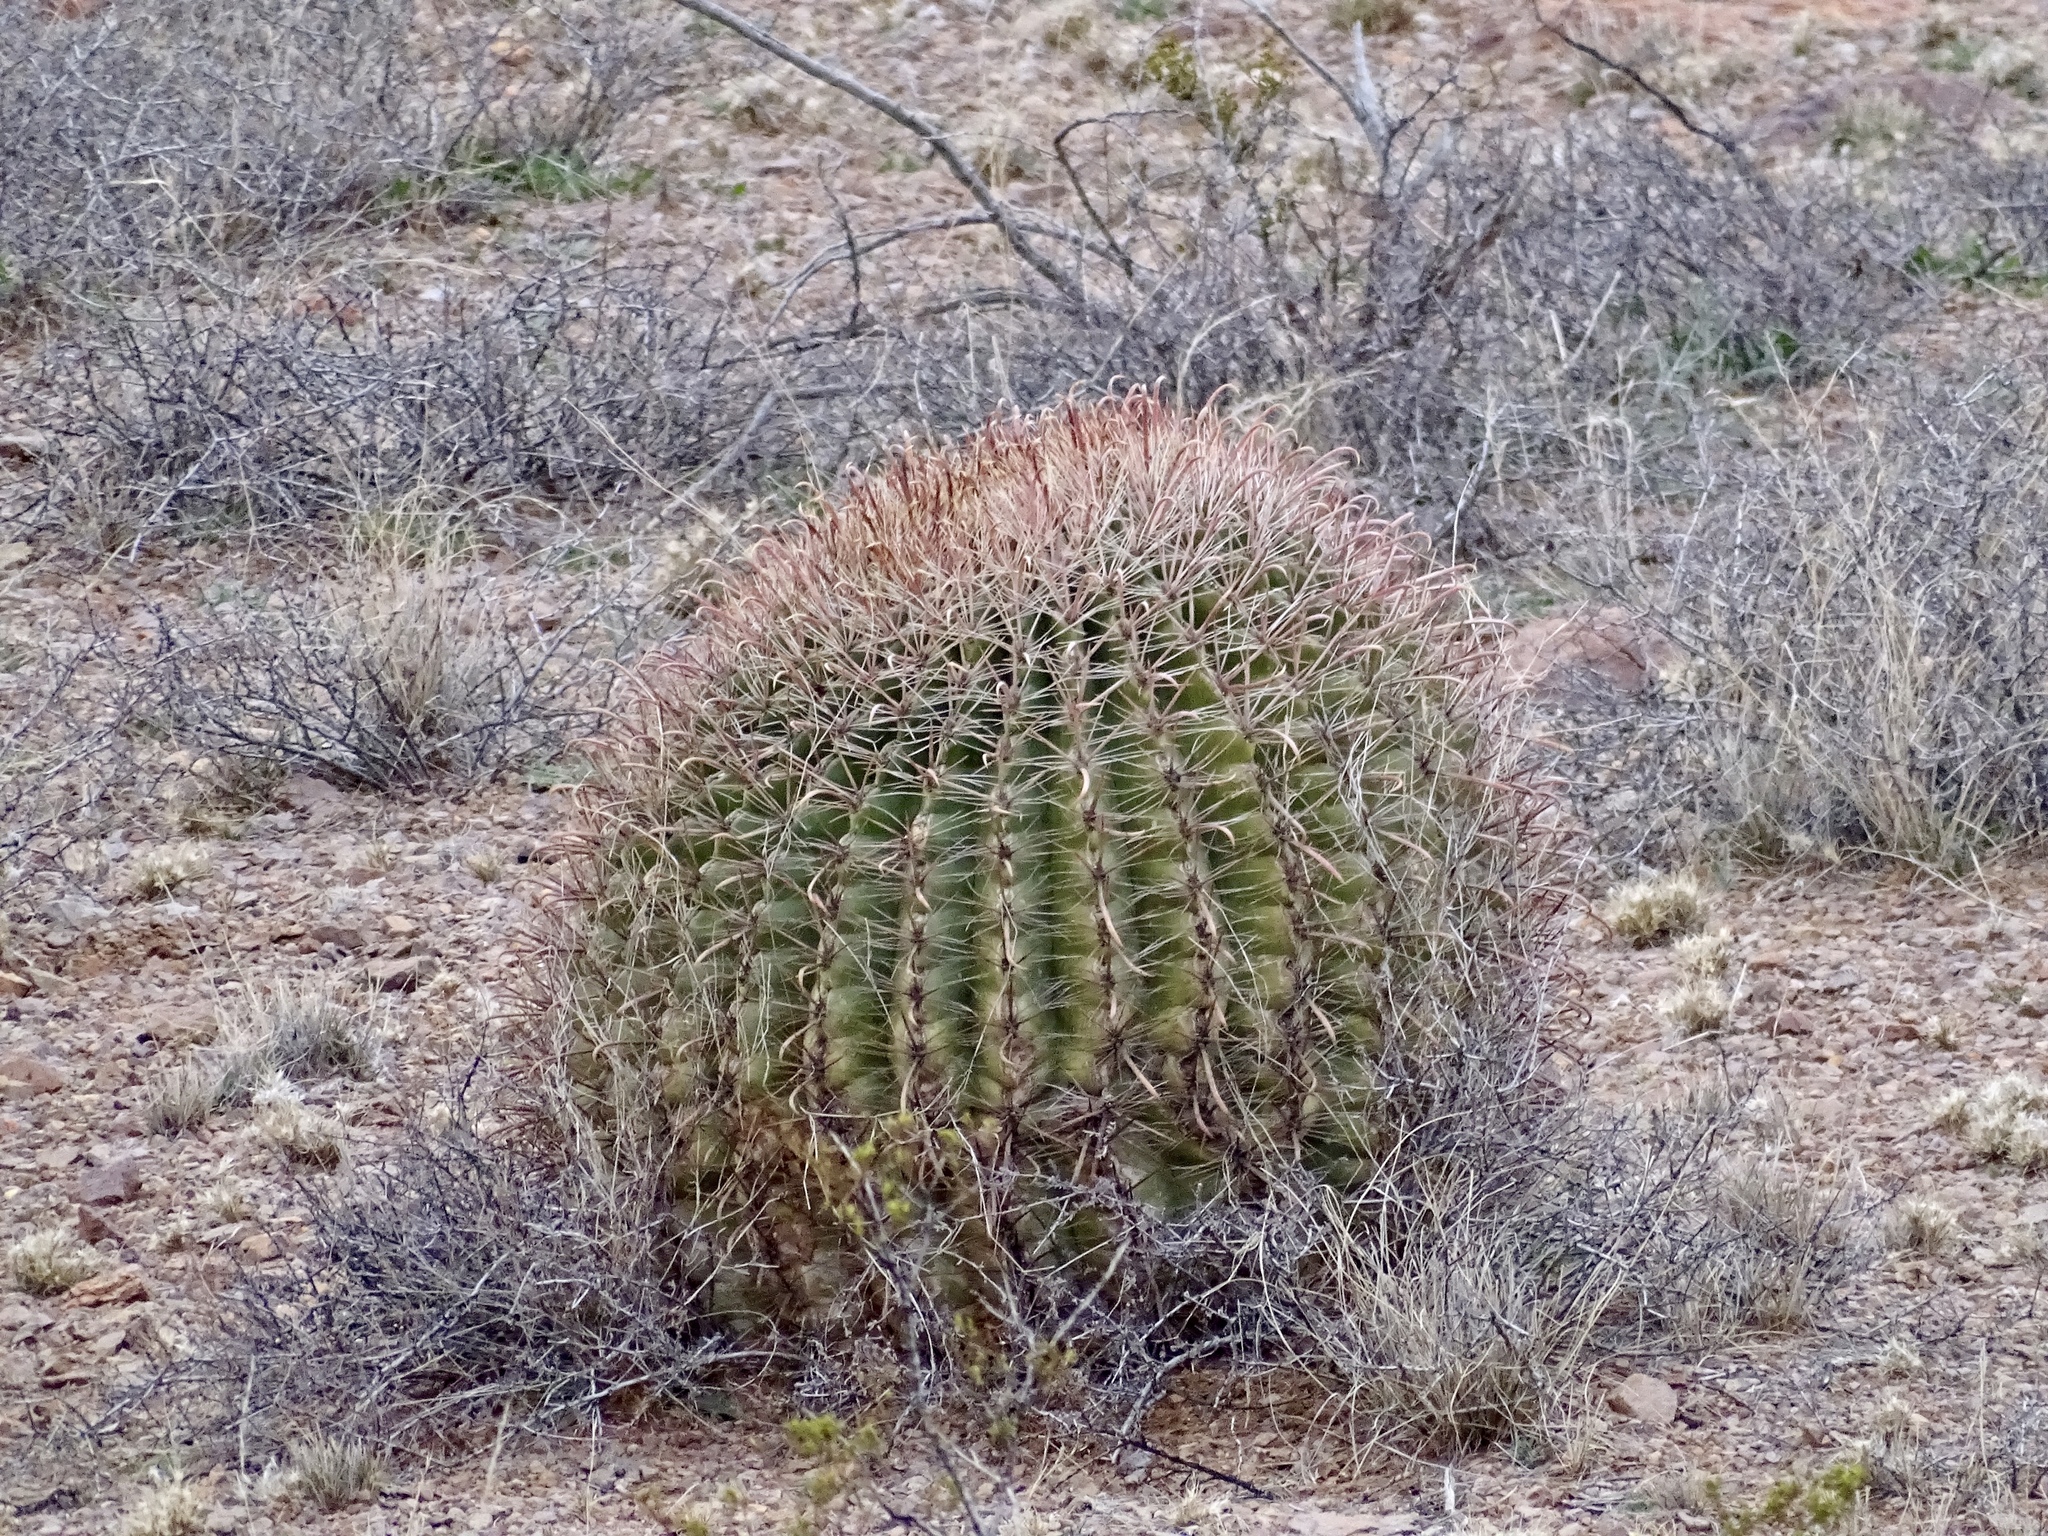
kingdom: Plantae
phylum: Tracheophyta
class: Magnoliopsida
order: Caryophyllales
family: Cactaceae
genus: Ferocactus
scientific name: Ferocactus wislizeni
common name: Candy barrel cactus
